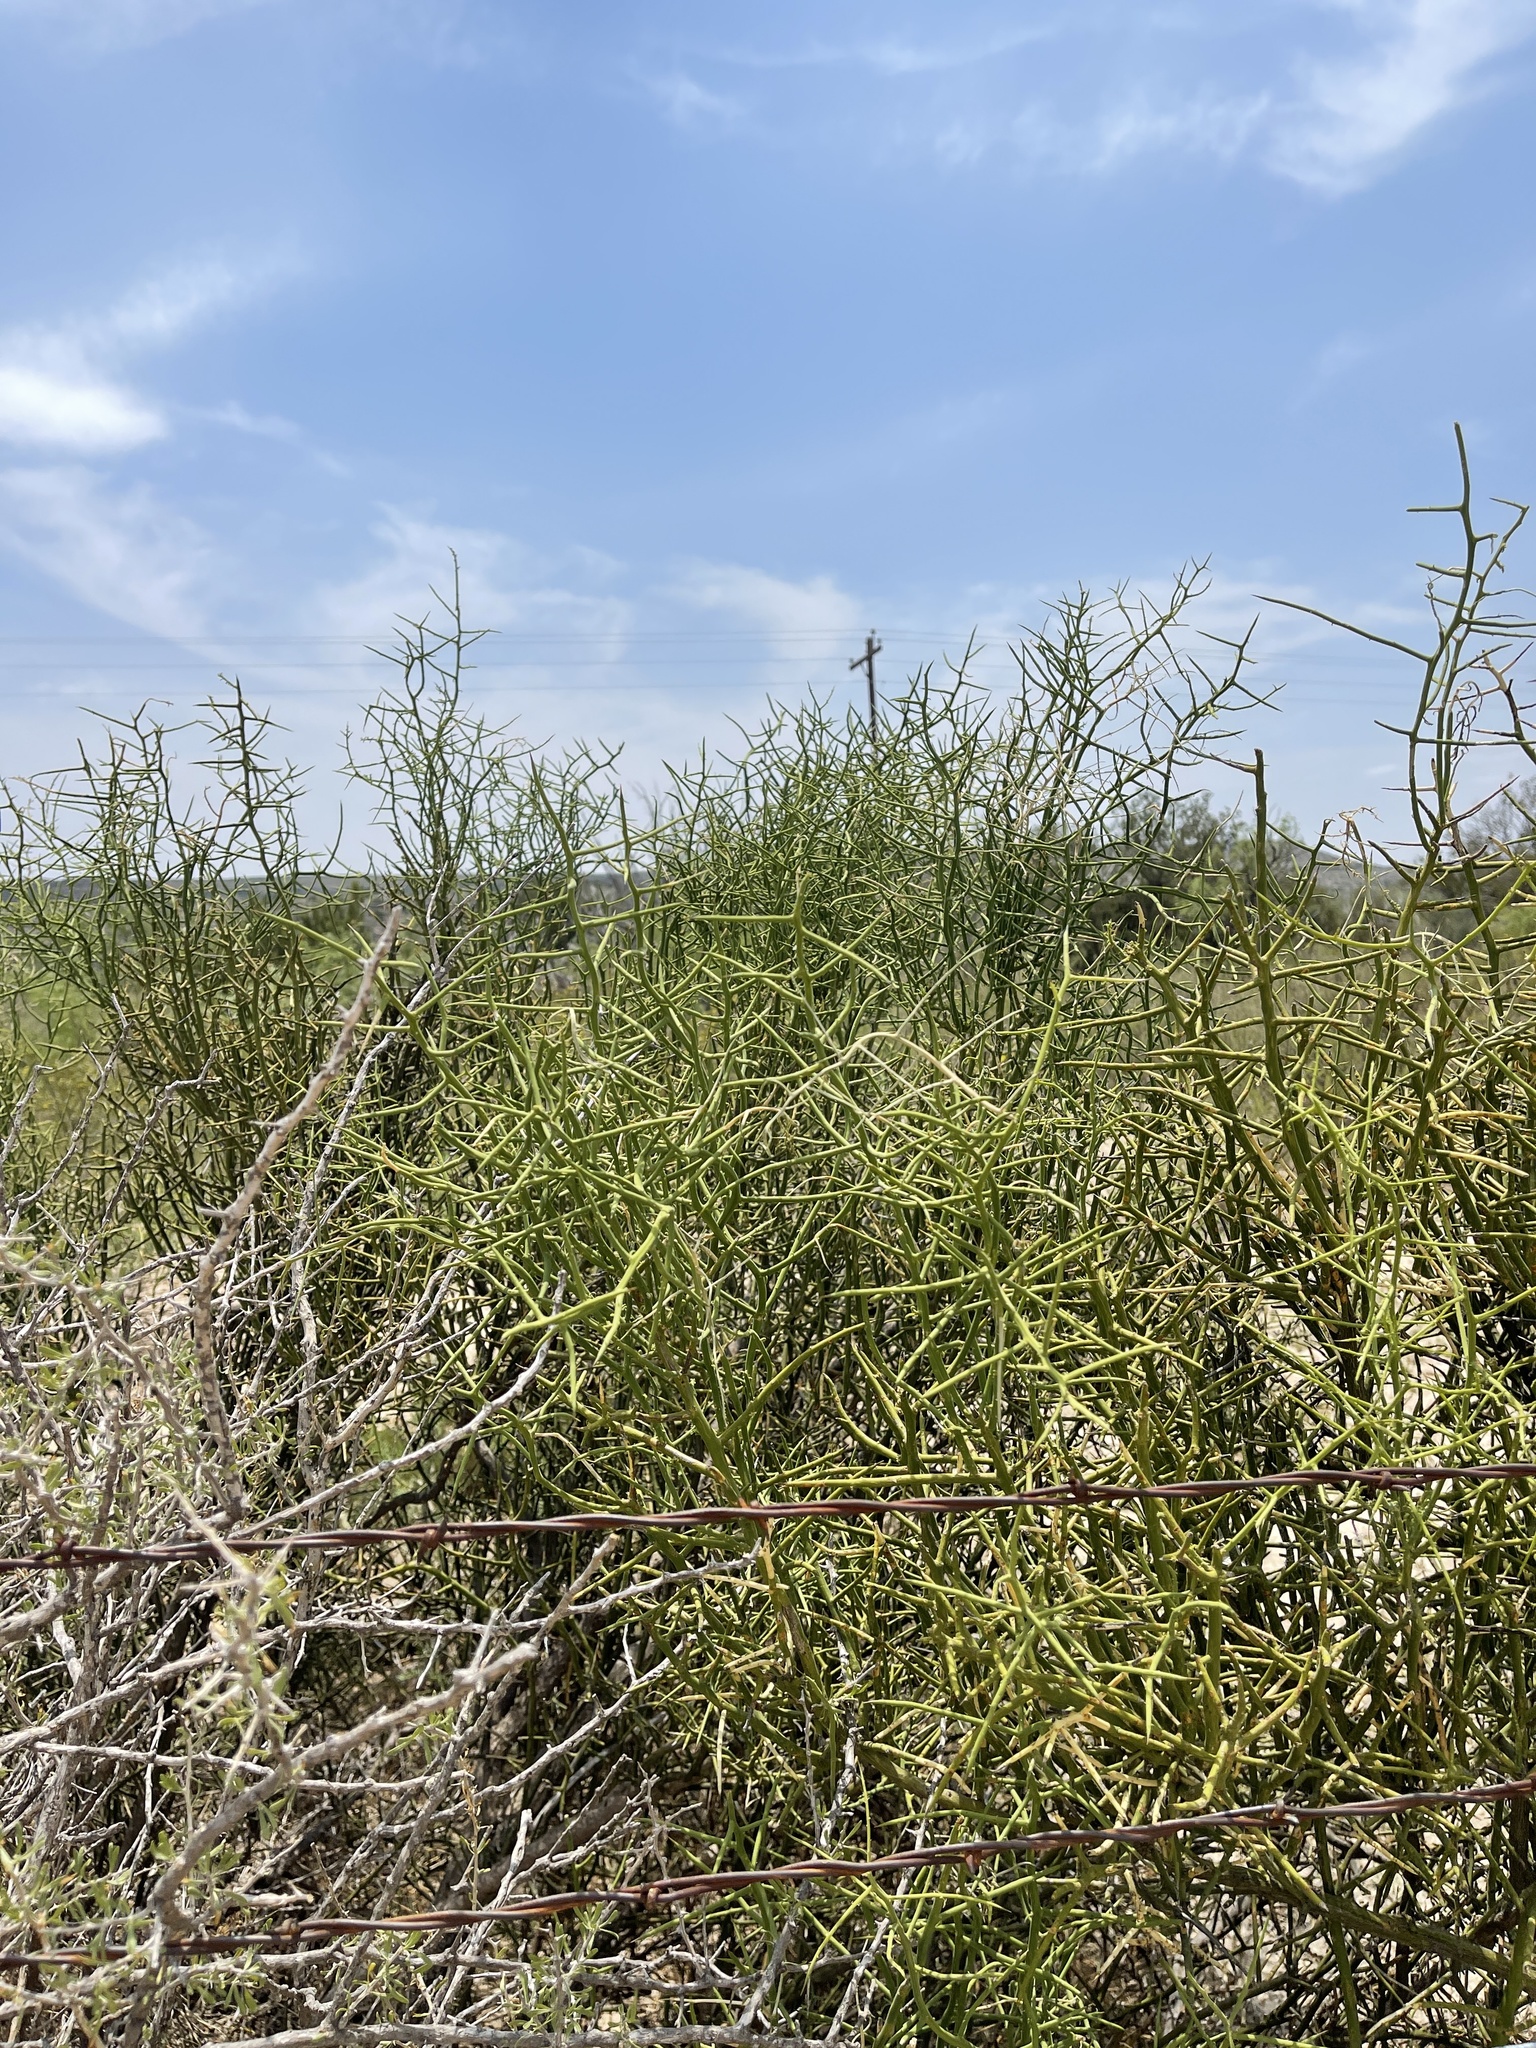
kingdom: Plantae
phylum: Tracheophyta
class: Magnoliopsida
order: Brassicales
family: Koeberliniaceae
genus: Koeberlinia
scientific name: Koeberlinia spinosa
